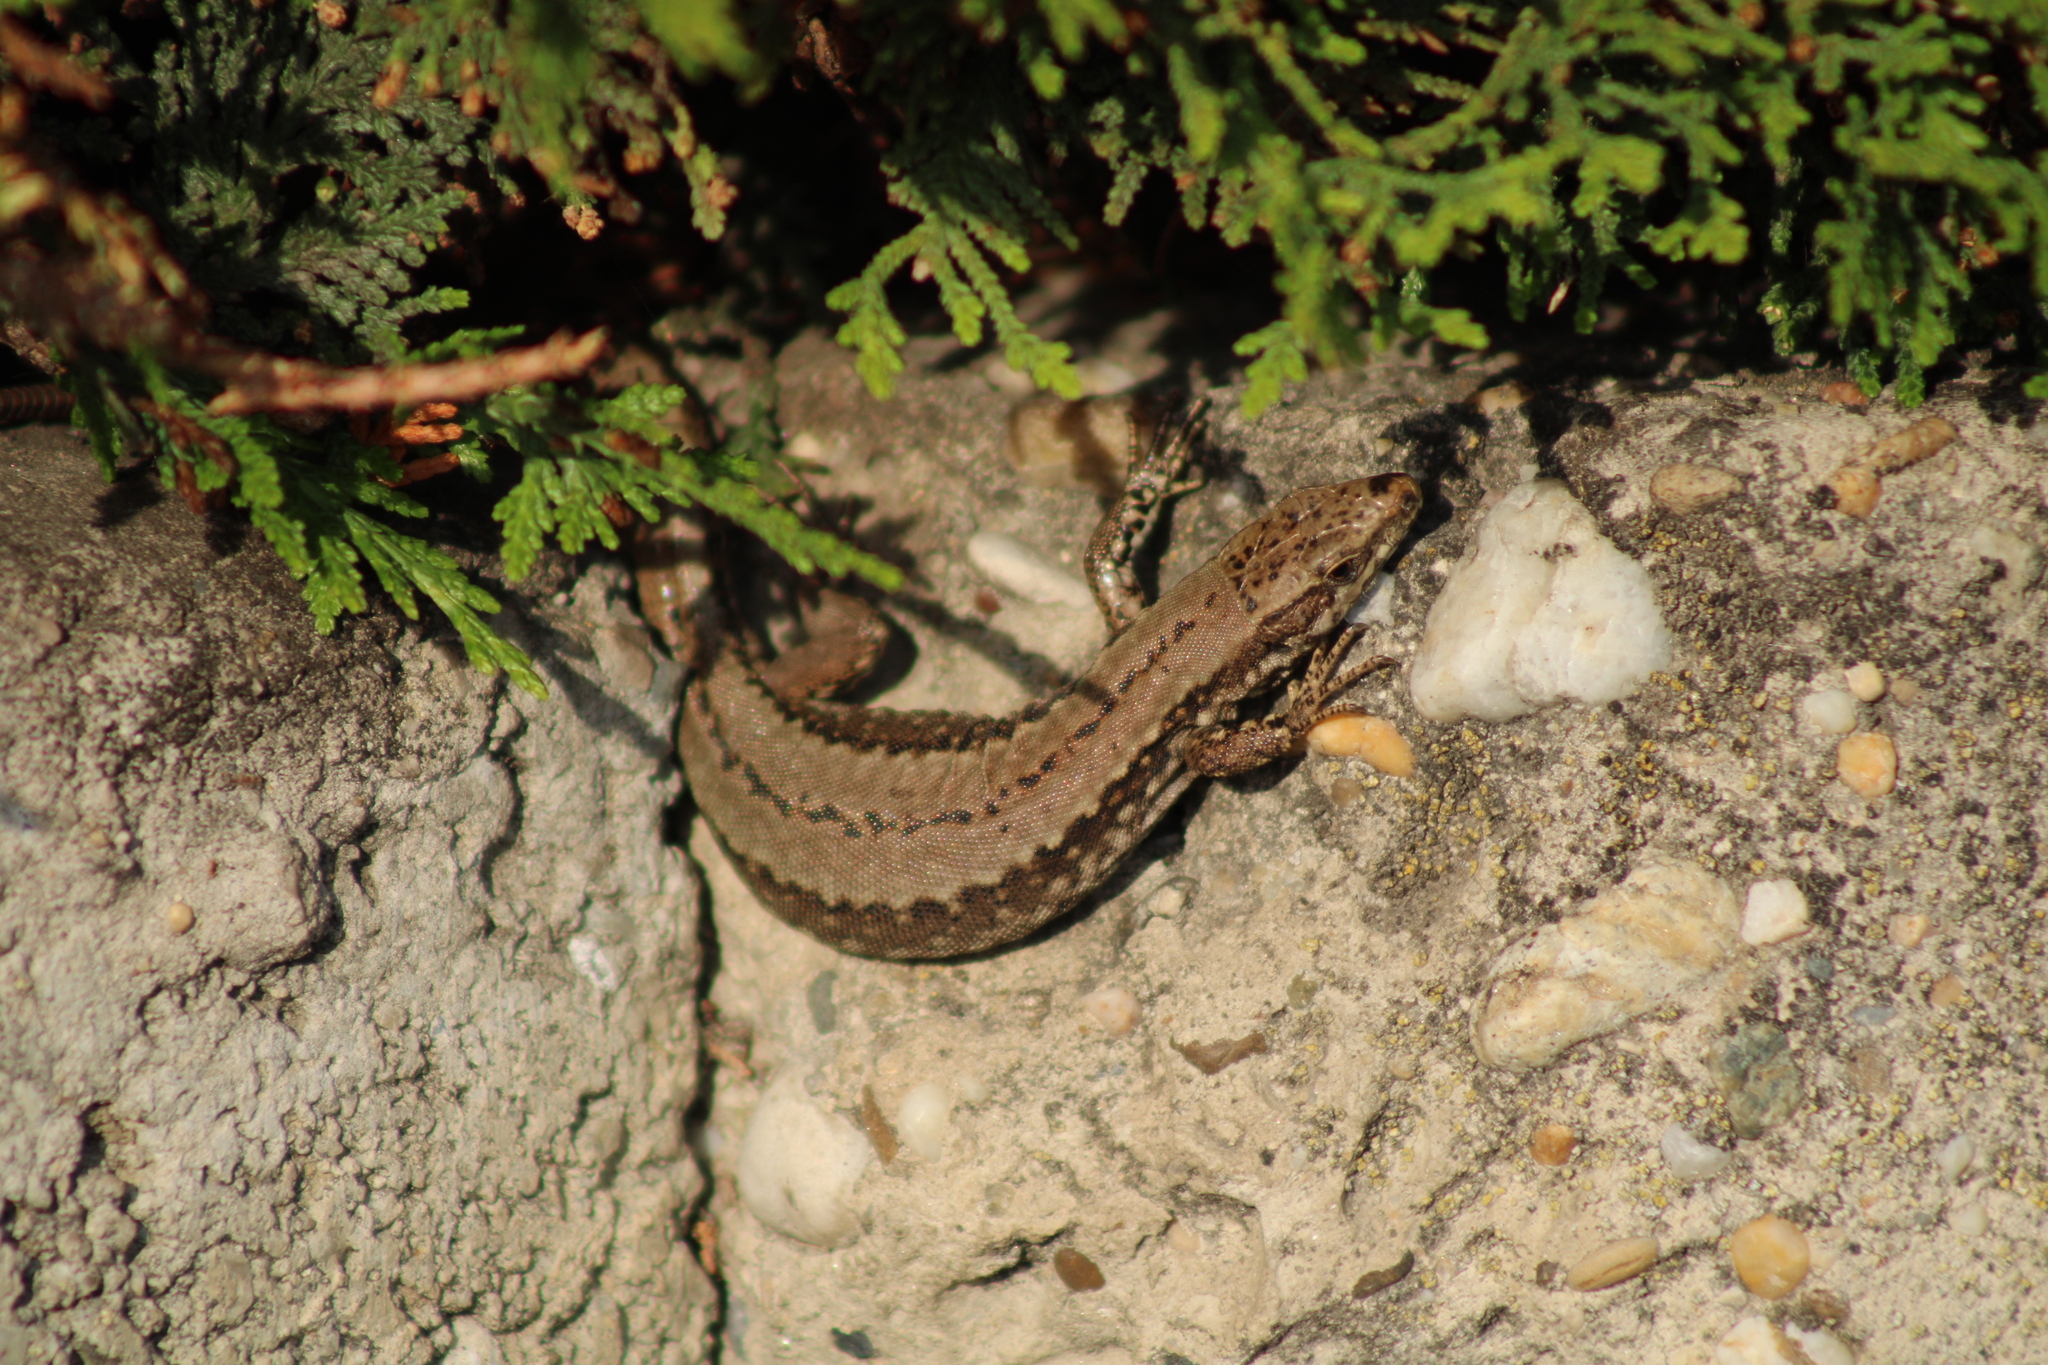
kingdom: Animalia
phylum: Chordata
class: Squamata
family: Lacertidae
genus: Podarcis
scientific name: Podarcis muralis
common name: Common wall lizard
